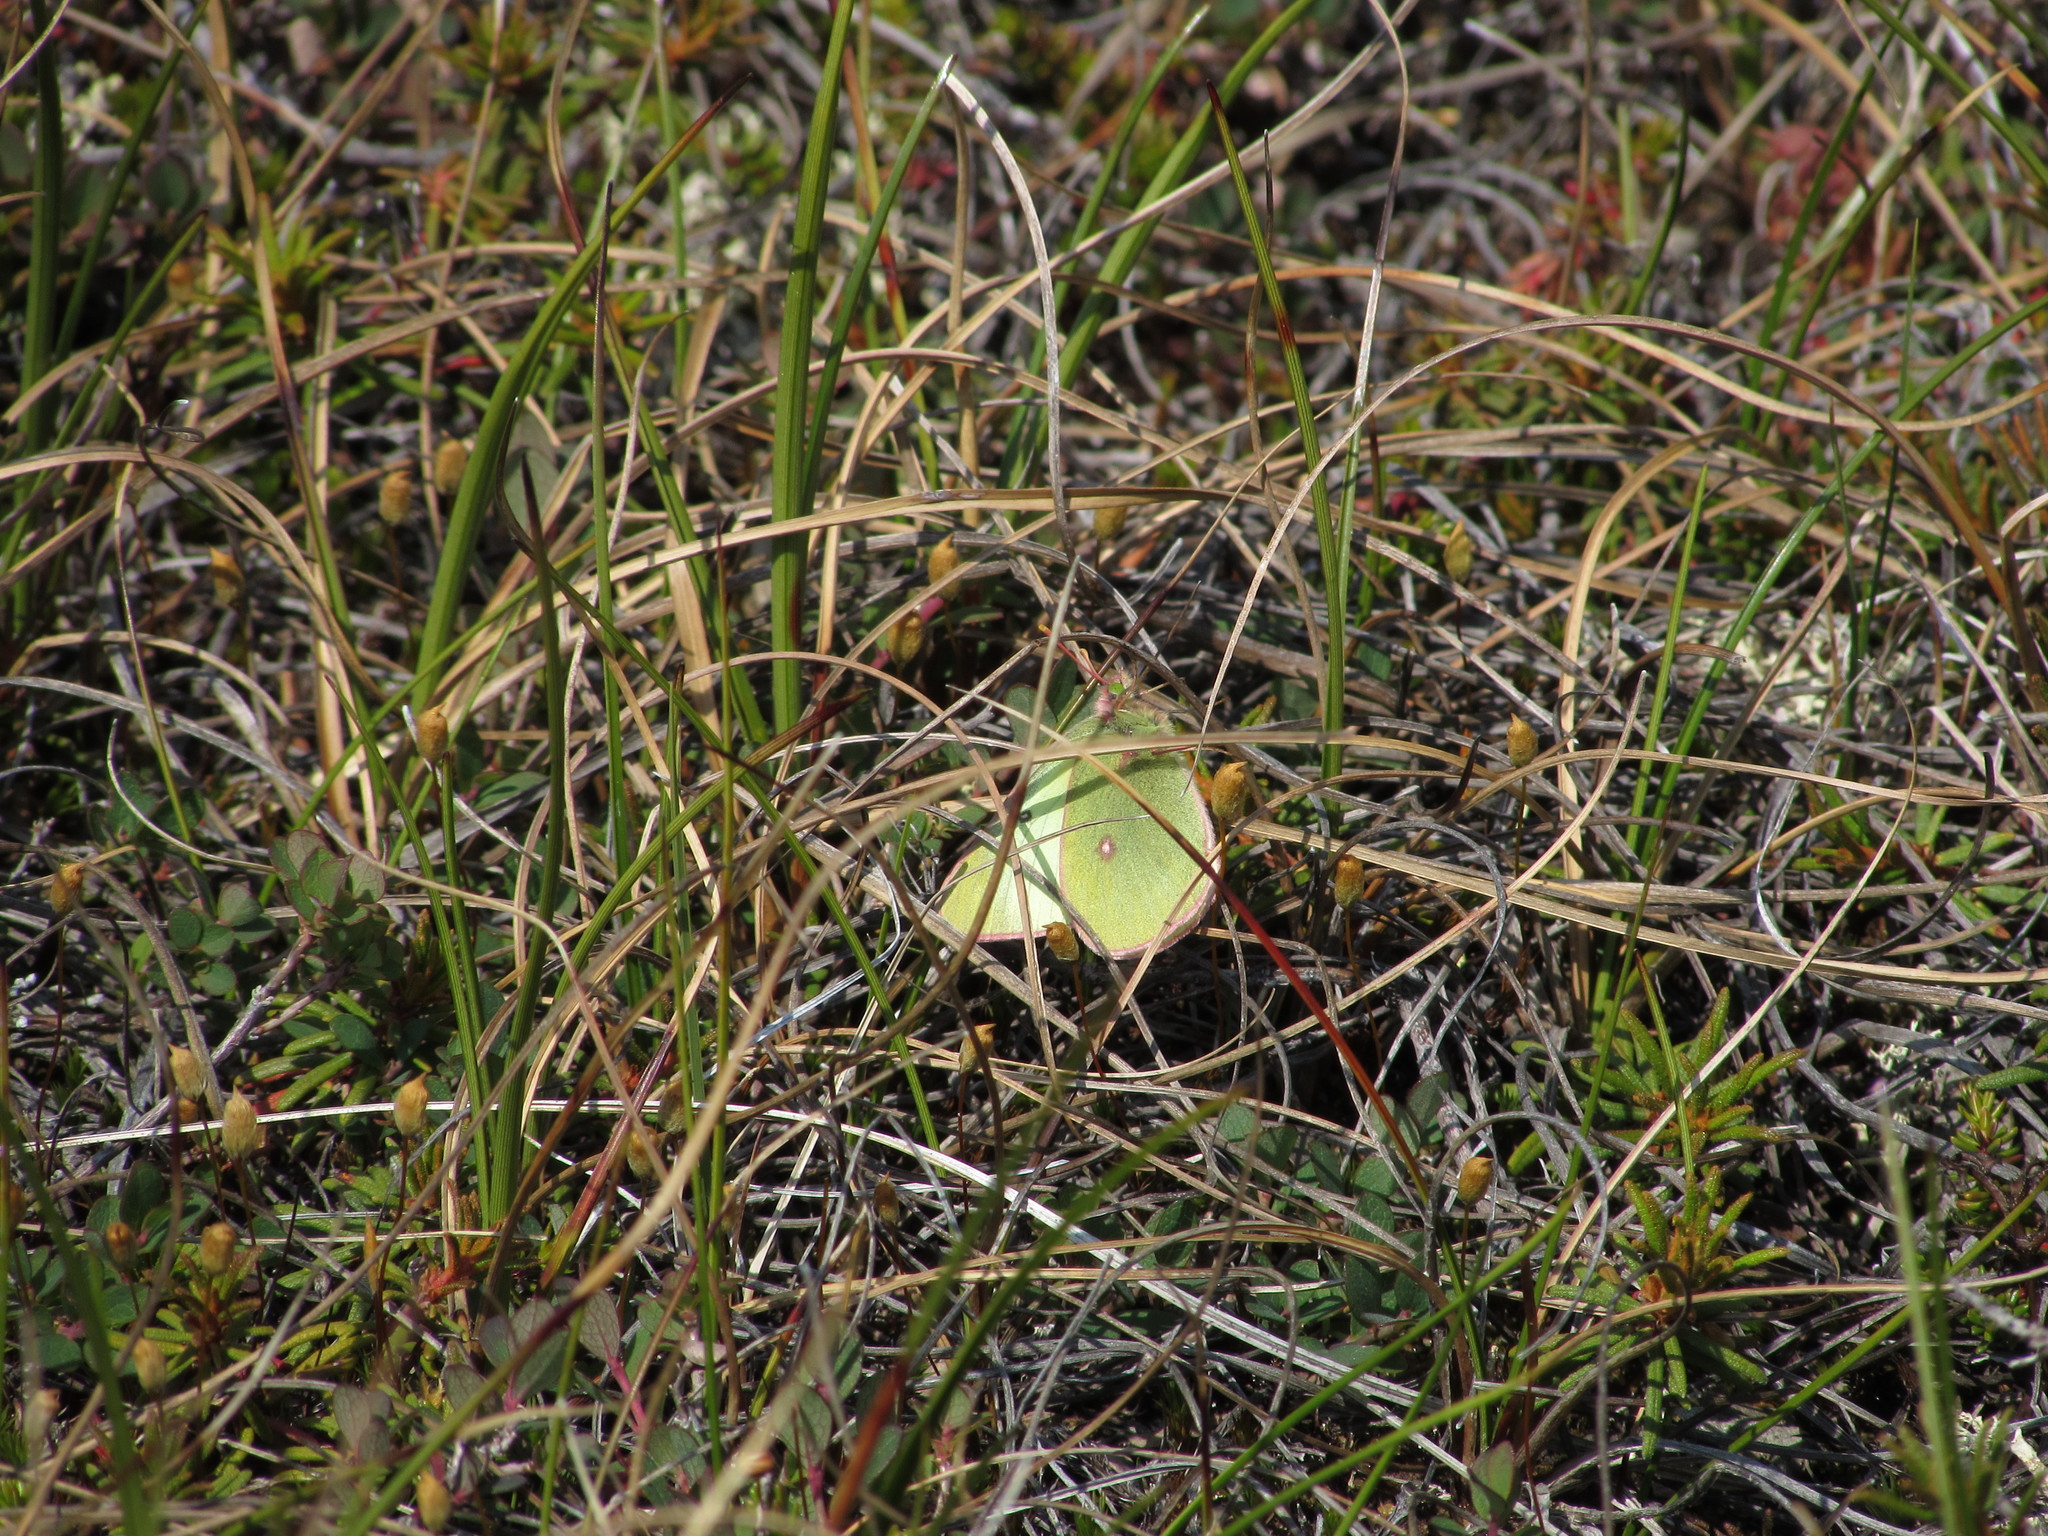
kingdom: Animalia
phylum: Arthropoda
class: Insecta
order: Lepidoptera
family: Pieridae
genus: Colias
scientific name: Colias pelidne
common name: Blueberry sulphur
